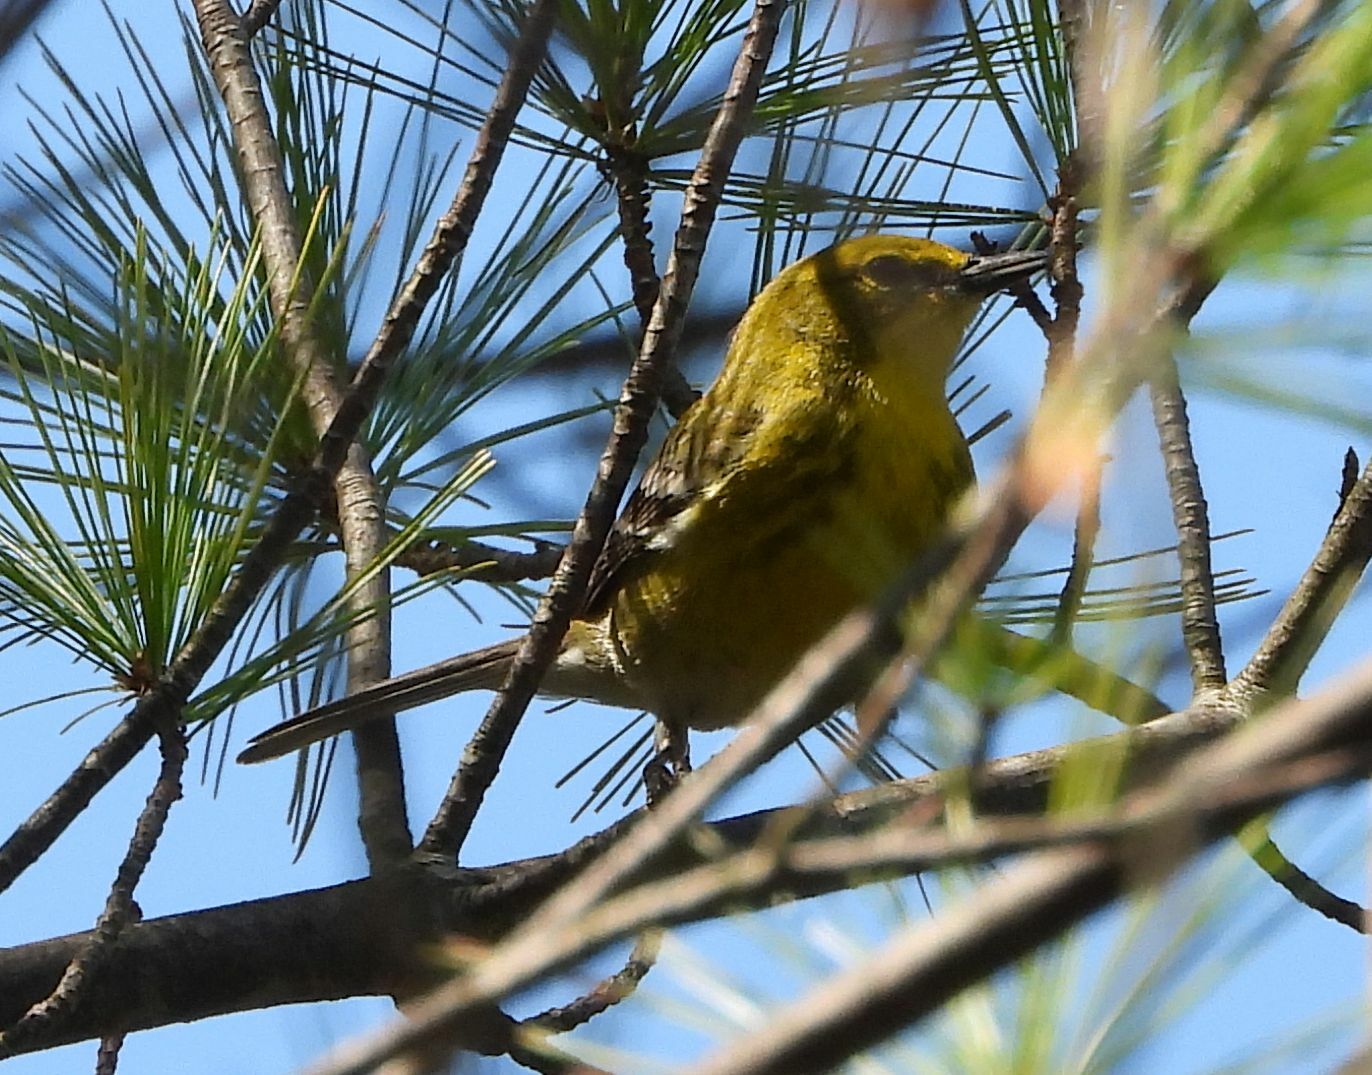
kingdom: Animalia
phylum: Chordata
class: Aves
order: Passeriformes
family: Parulidae
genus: Setophaga
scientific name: Setophaga pinus
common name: Pine warbler
